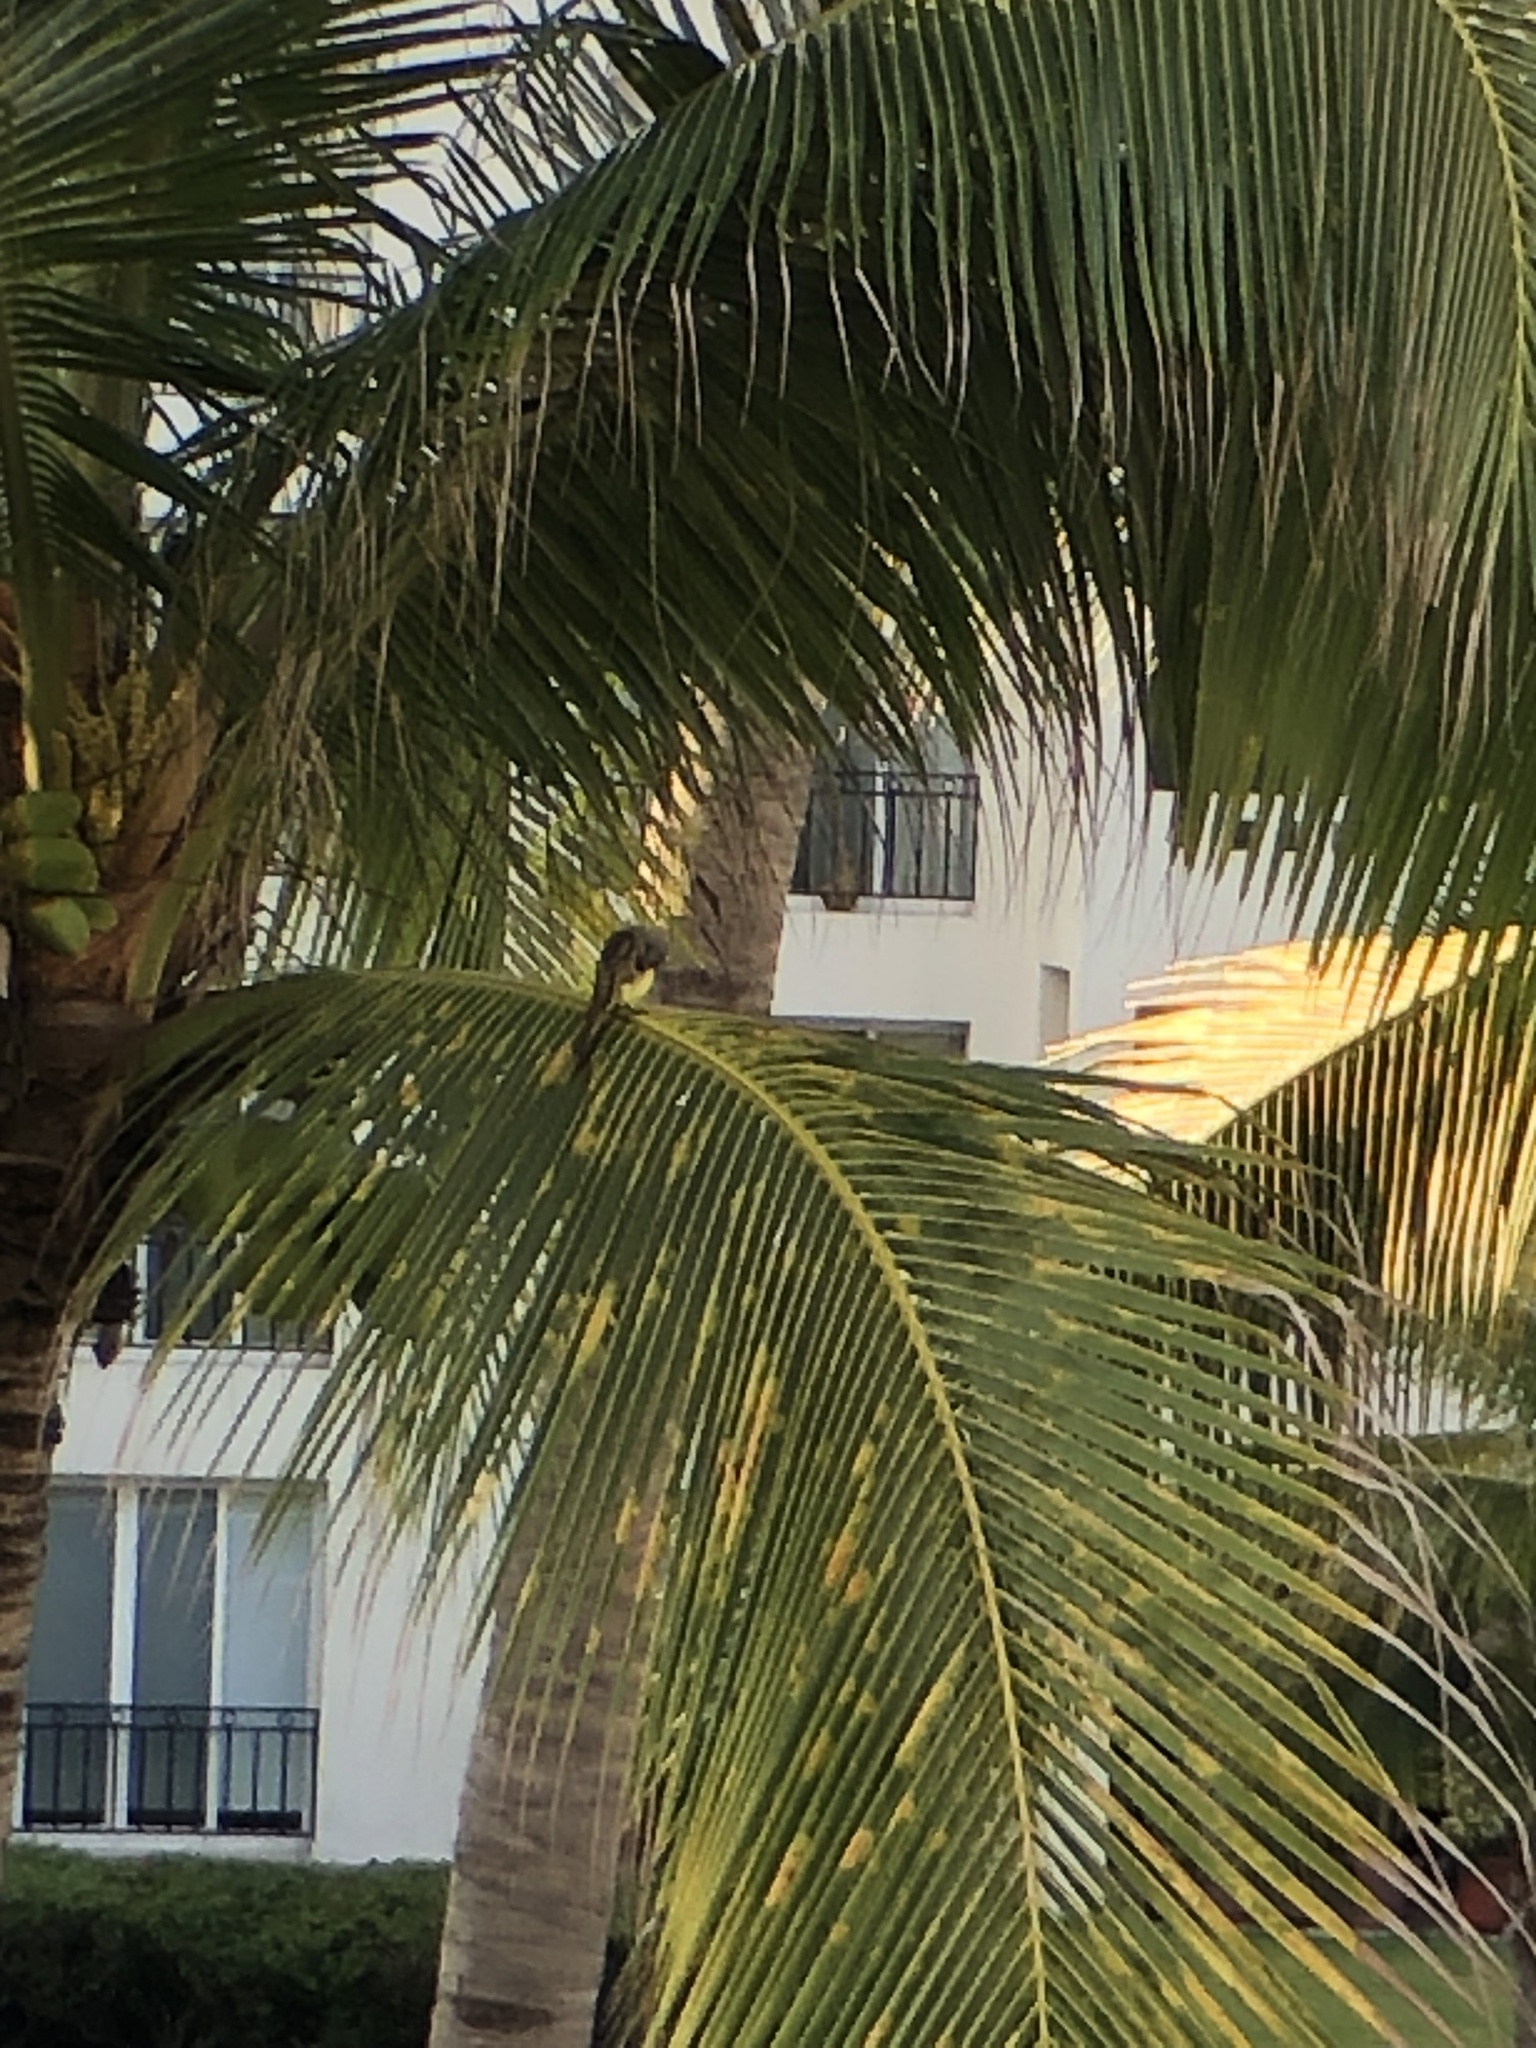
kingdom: Animalia
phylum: Chordata
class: Aves
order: Passeriformes
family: Tyrannidae
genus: Pitangus
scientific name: Pitangus sulphuratus
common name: Great kiskadee
